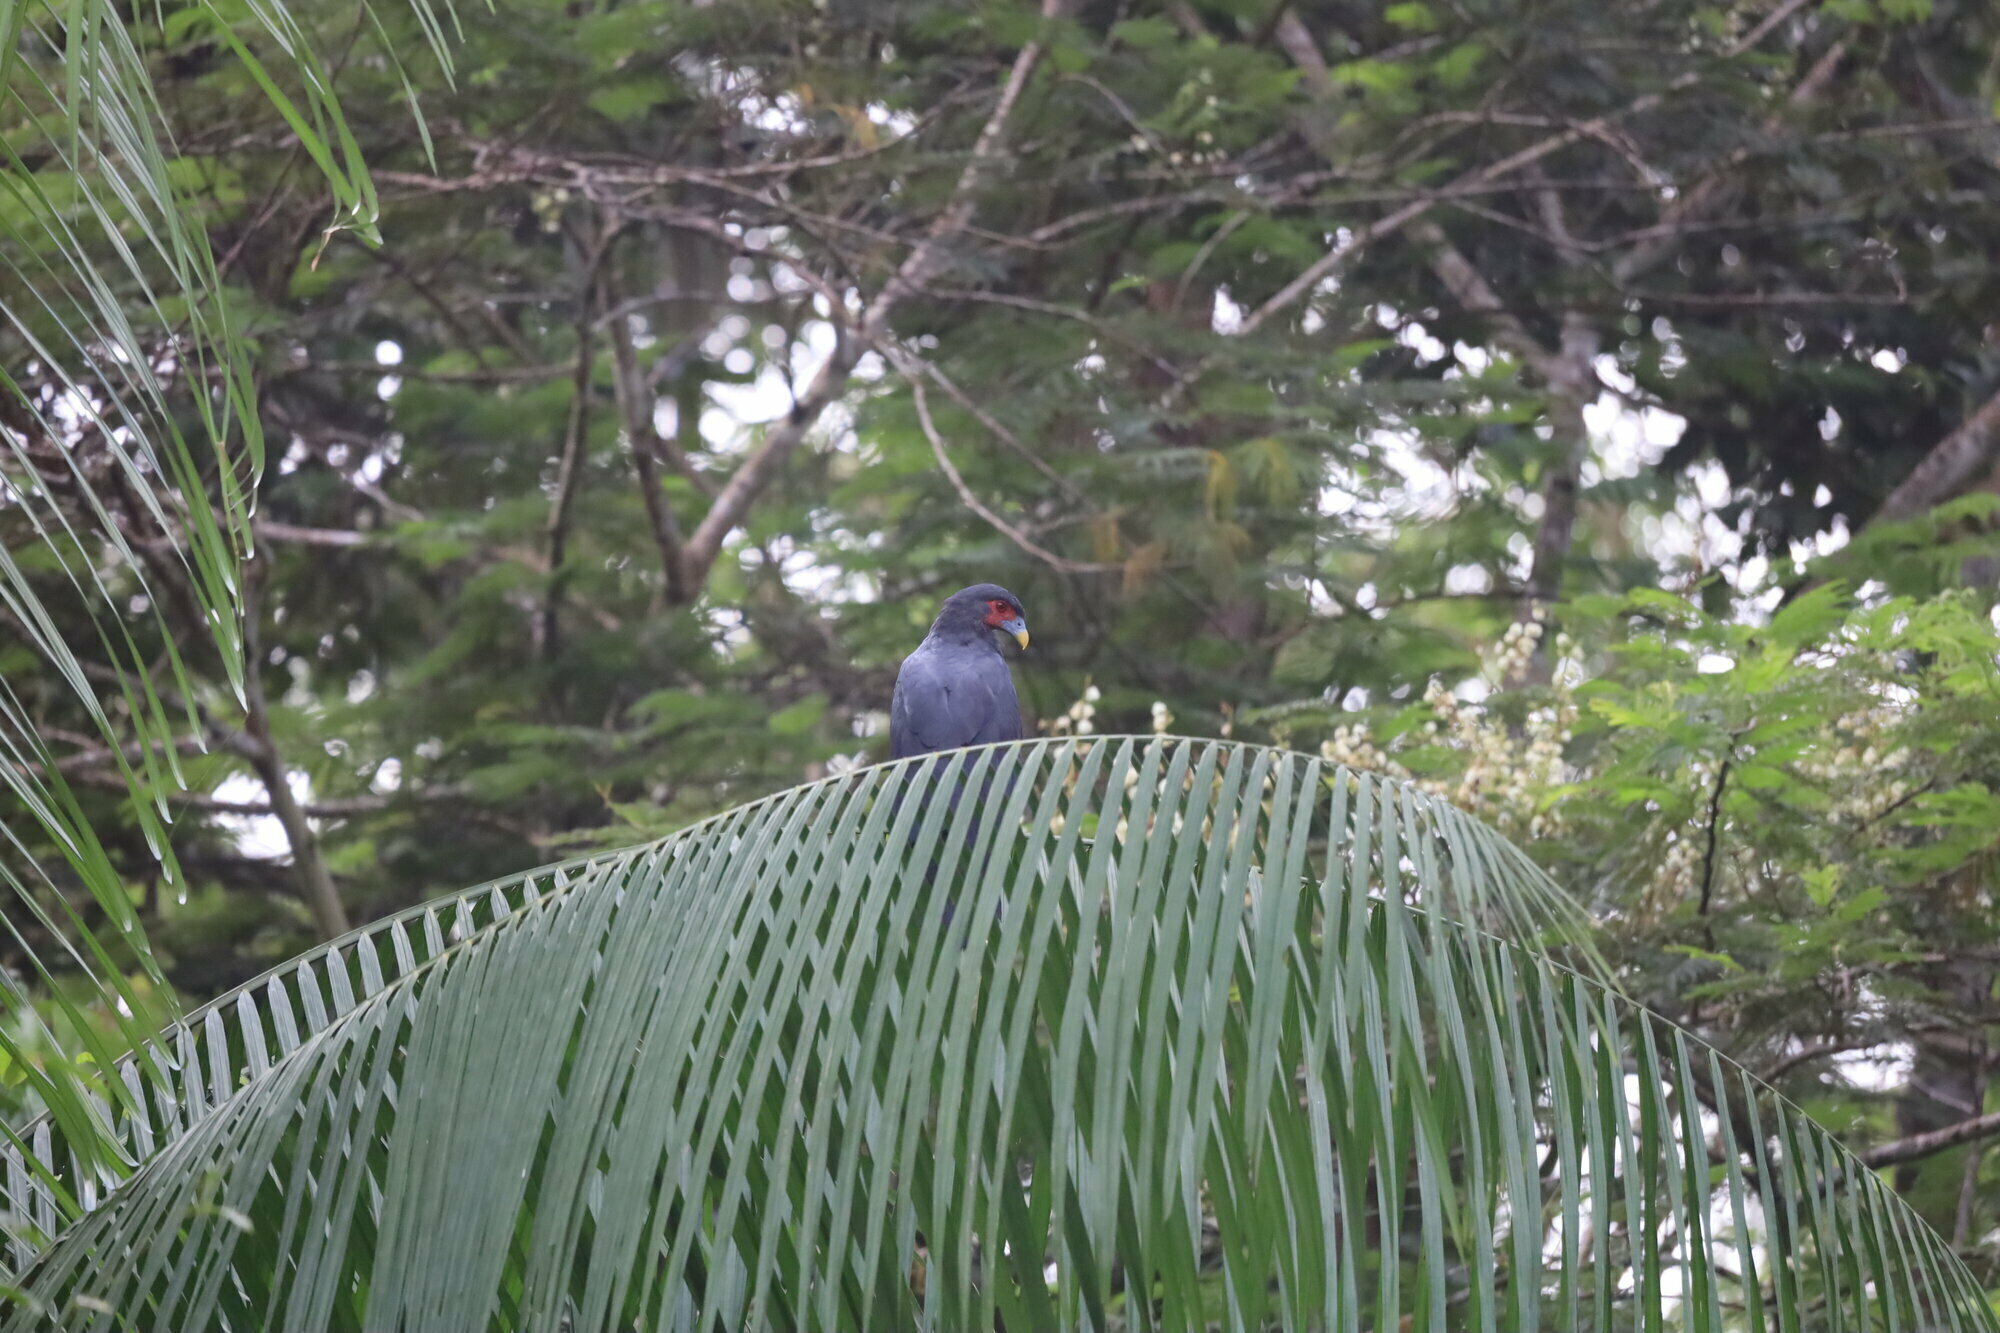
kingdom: Animalia
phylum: Chordata
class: Aves
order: Falconiformes
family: Falconidae
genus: Ibycter
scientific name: Ibycter americanus
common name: Red-throated caracara
